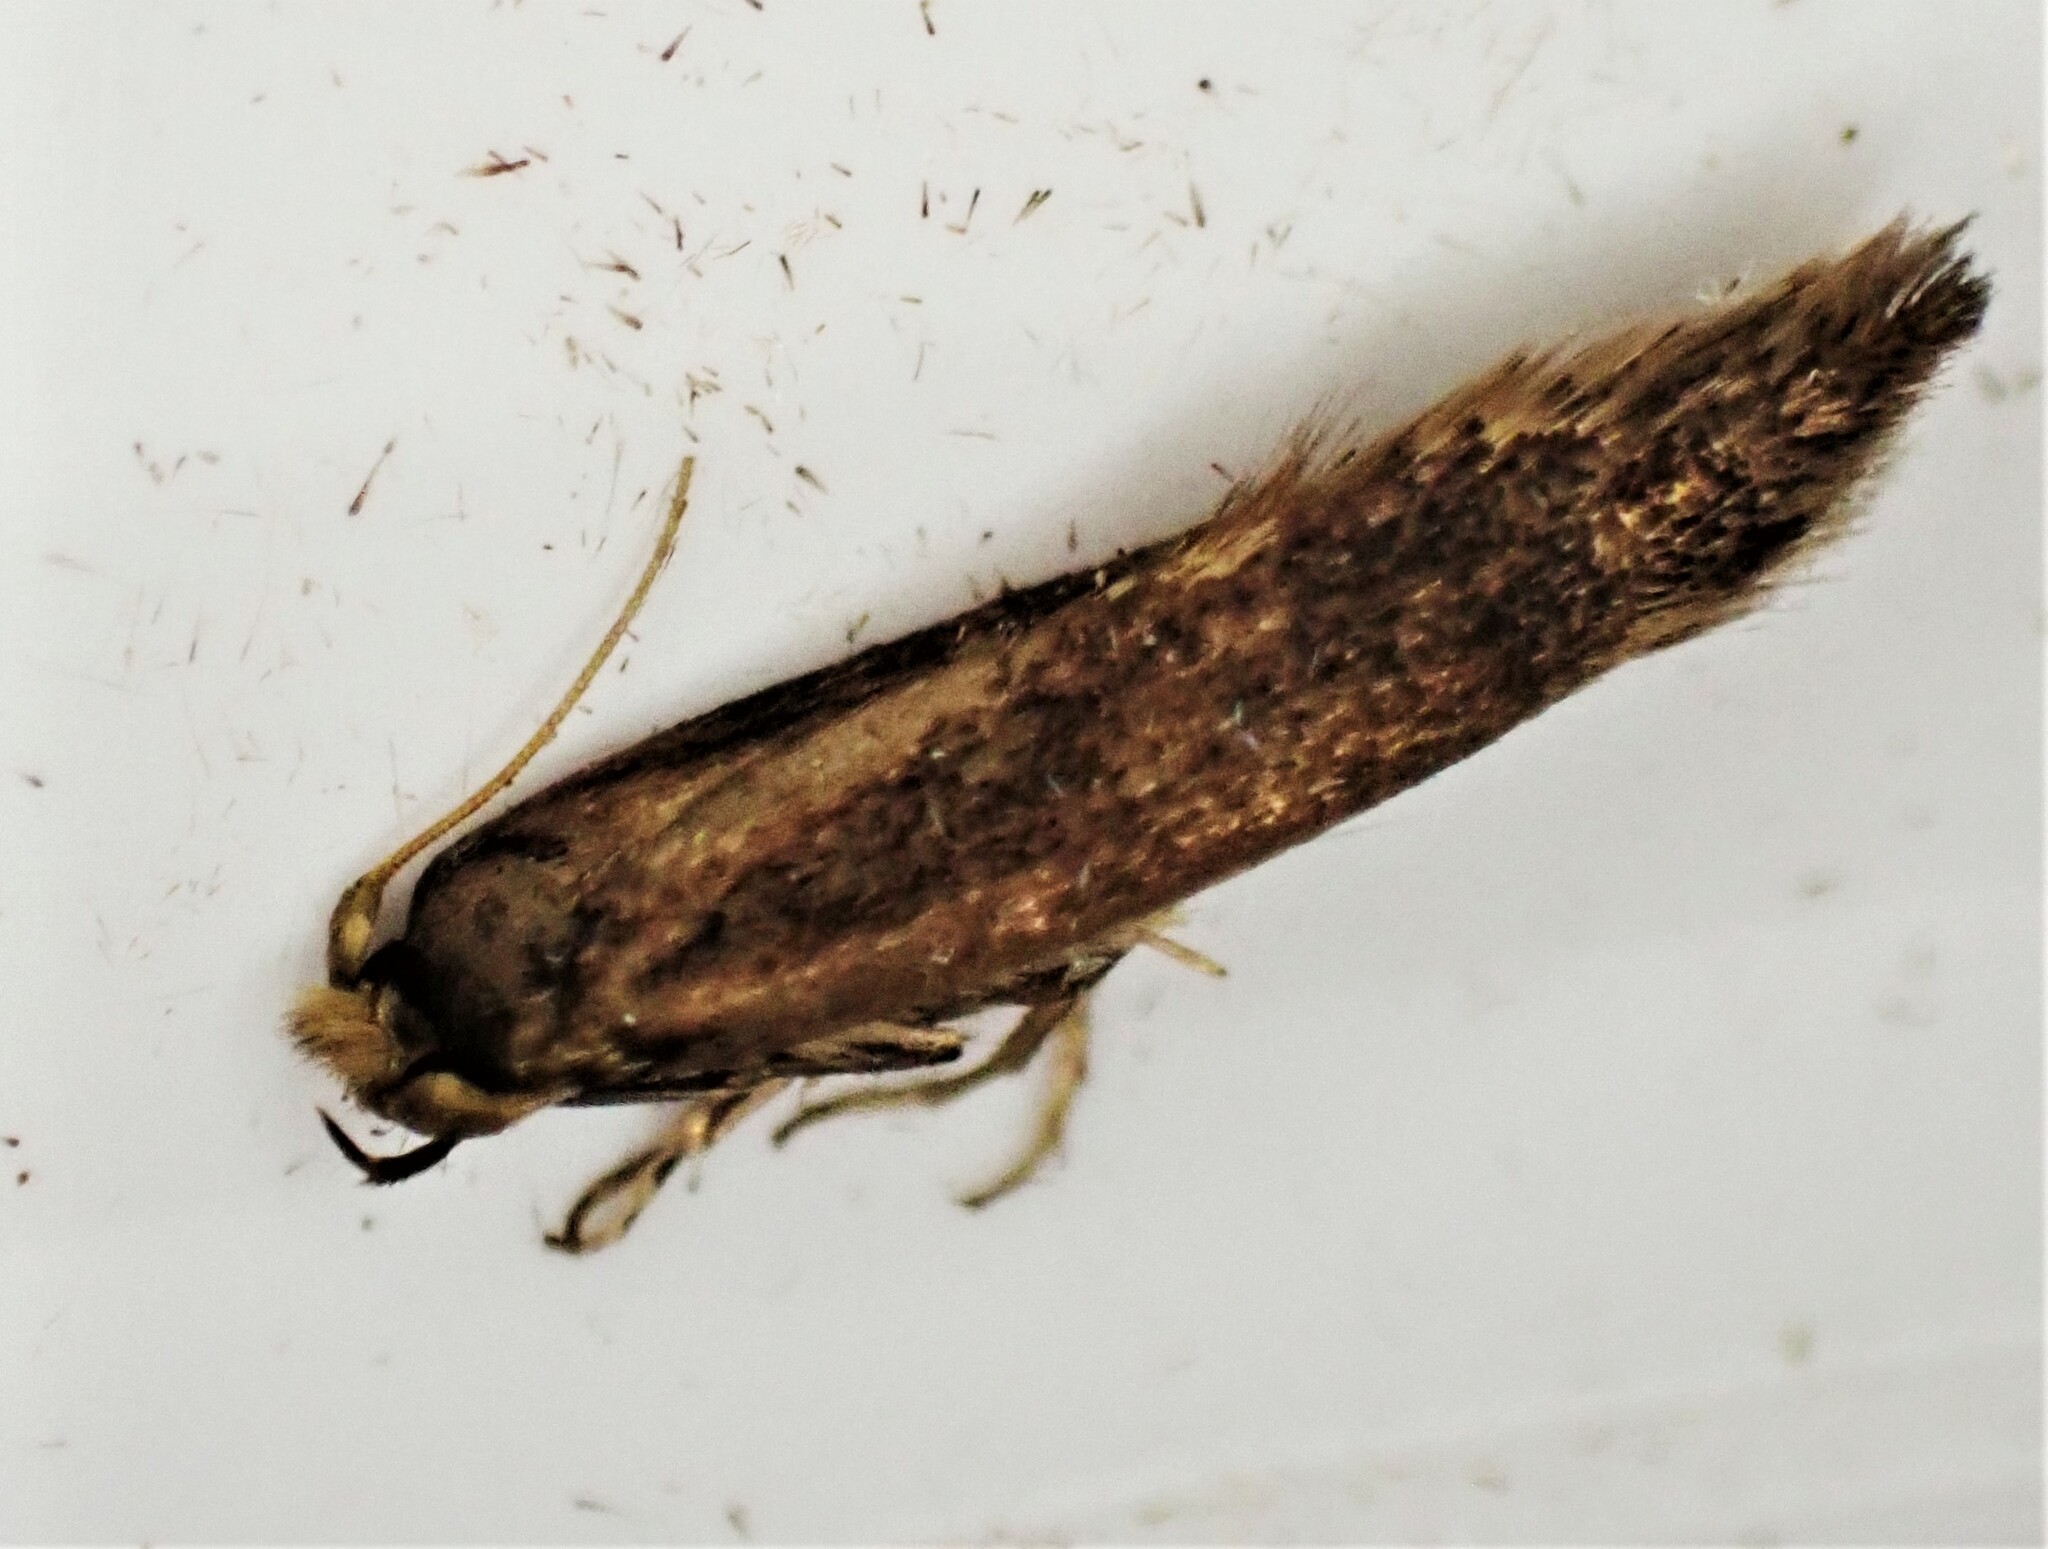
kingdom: Animalia
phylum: Arthropoda
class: Insecta
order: Lepidoptera
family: Tineidae
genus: Opogona
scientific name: Opogona omoscopa
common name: Moth
